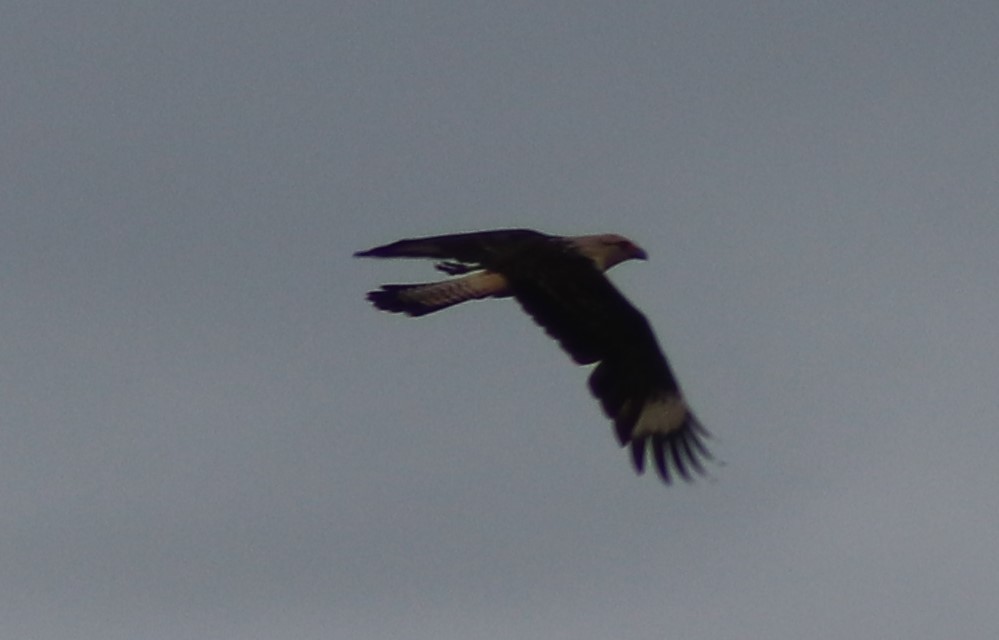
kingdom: Animalia
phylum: Chordata
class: Aves
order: Falconiformes
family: Falconidae
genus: Daptrius
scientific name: Daptrius
